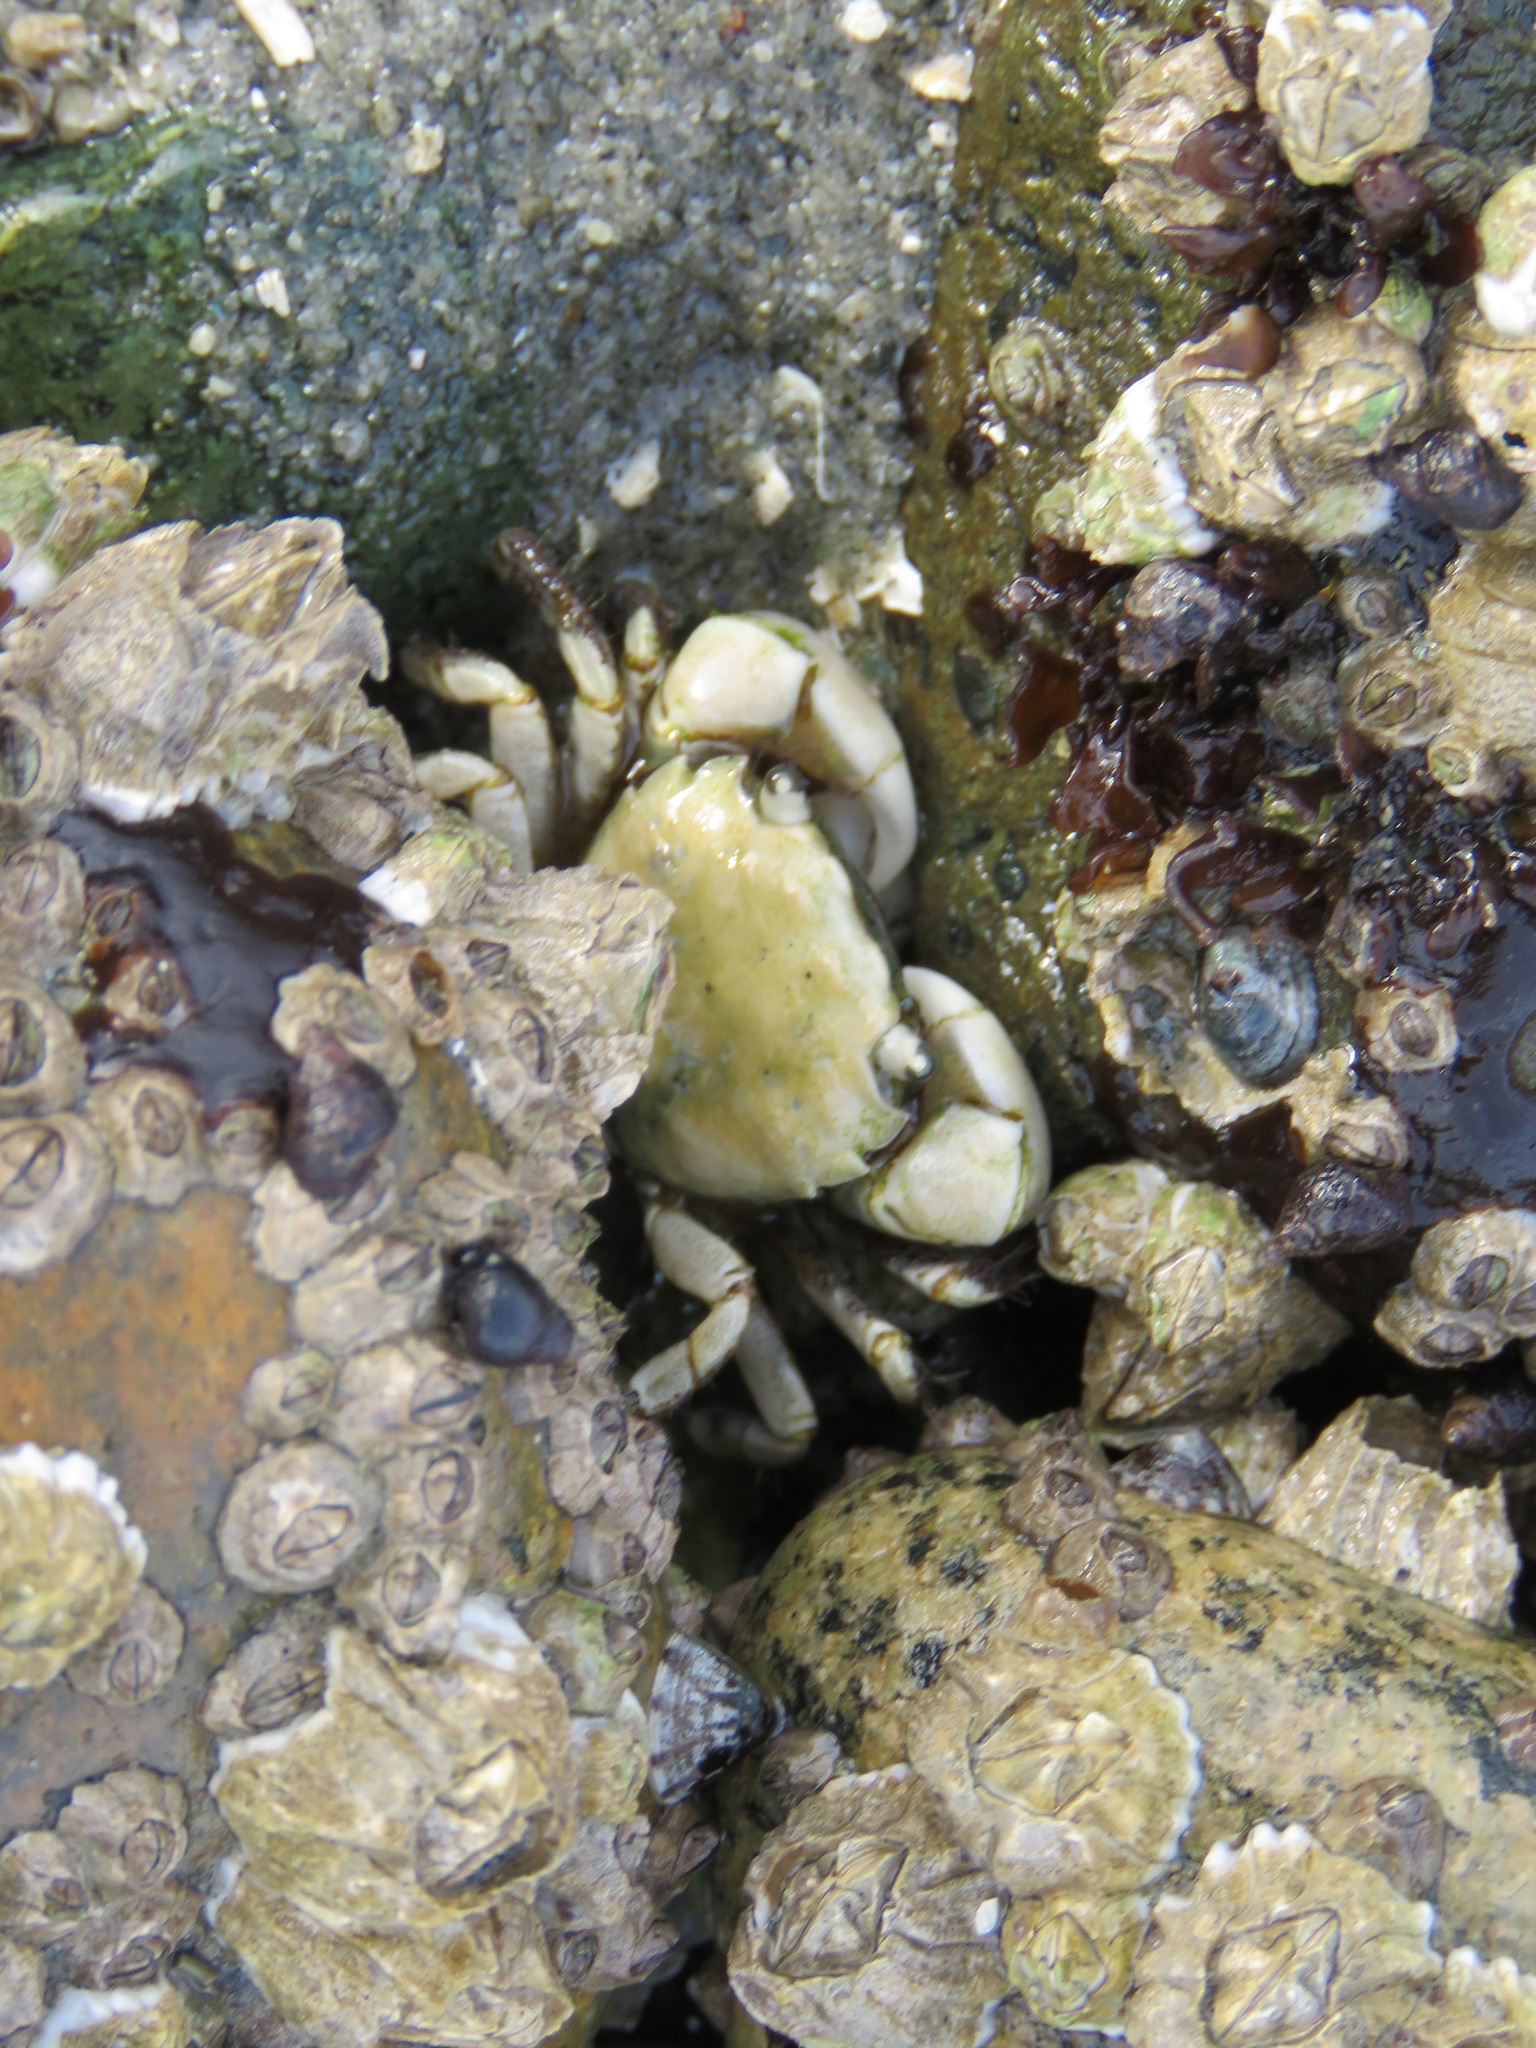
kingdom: Animalia
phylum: Arthropoda
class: Malacostraca
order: Decapoda
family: Varunidae
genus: Hemigrapsus
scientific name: Hemigrapsus oregonensis
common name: Yellow shore crab
